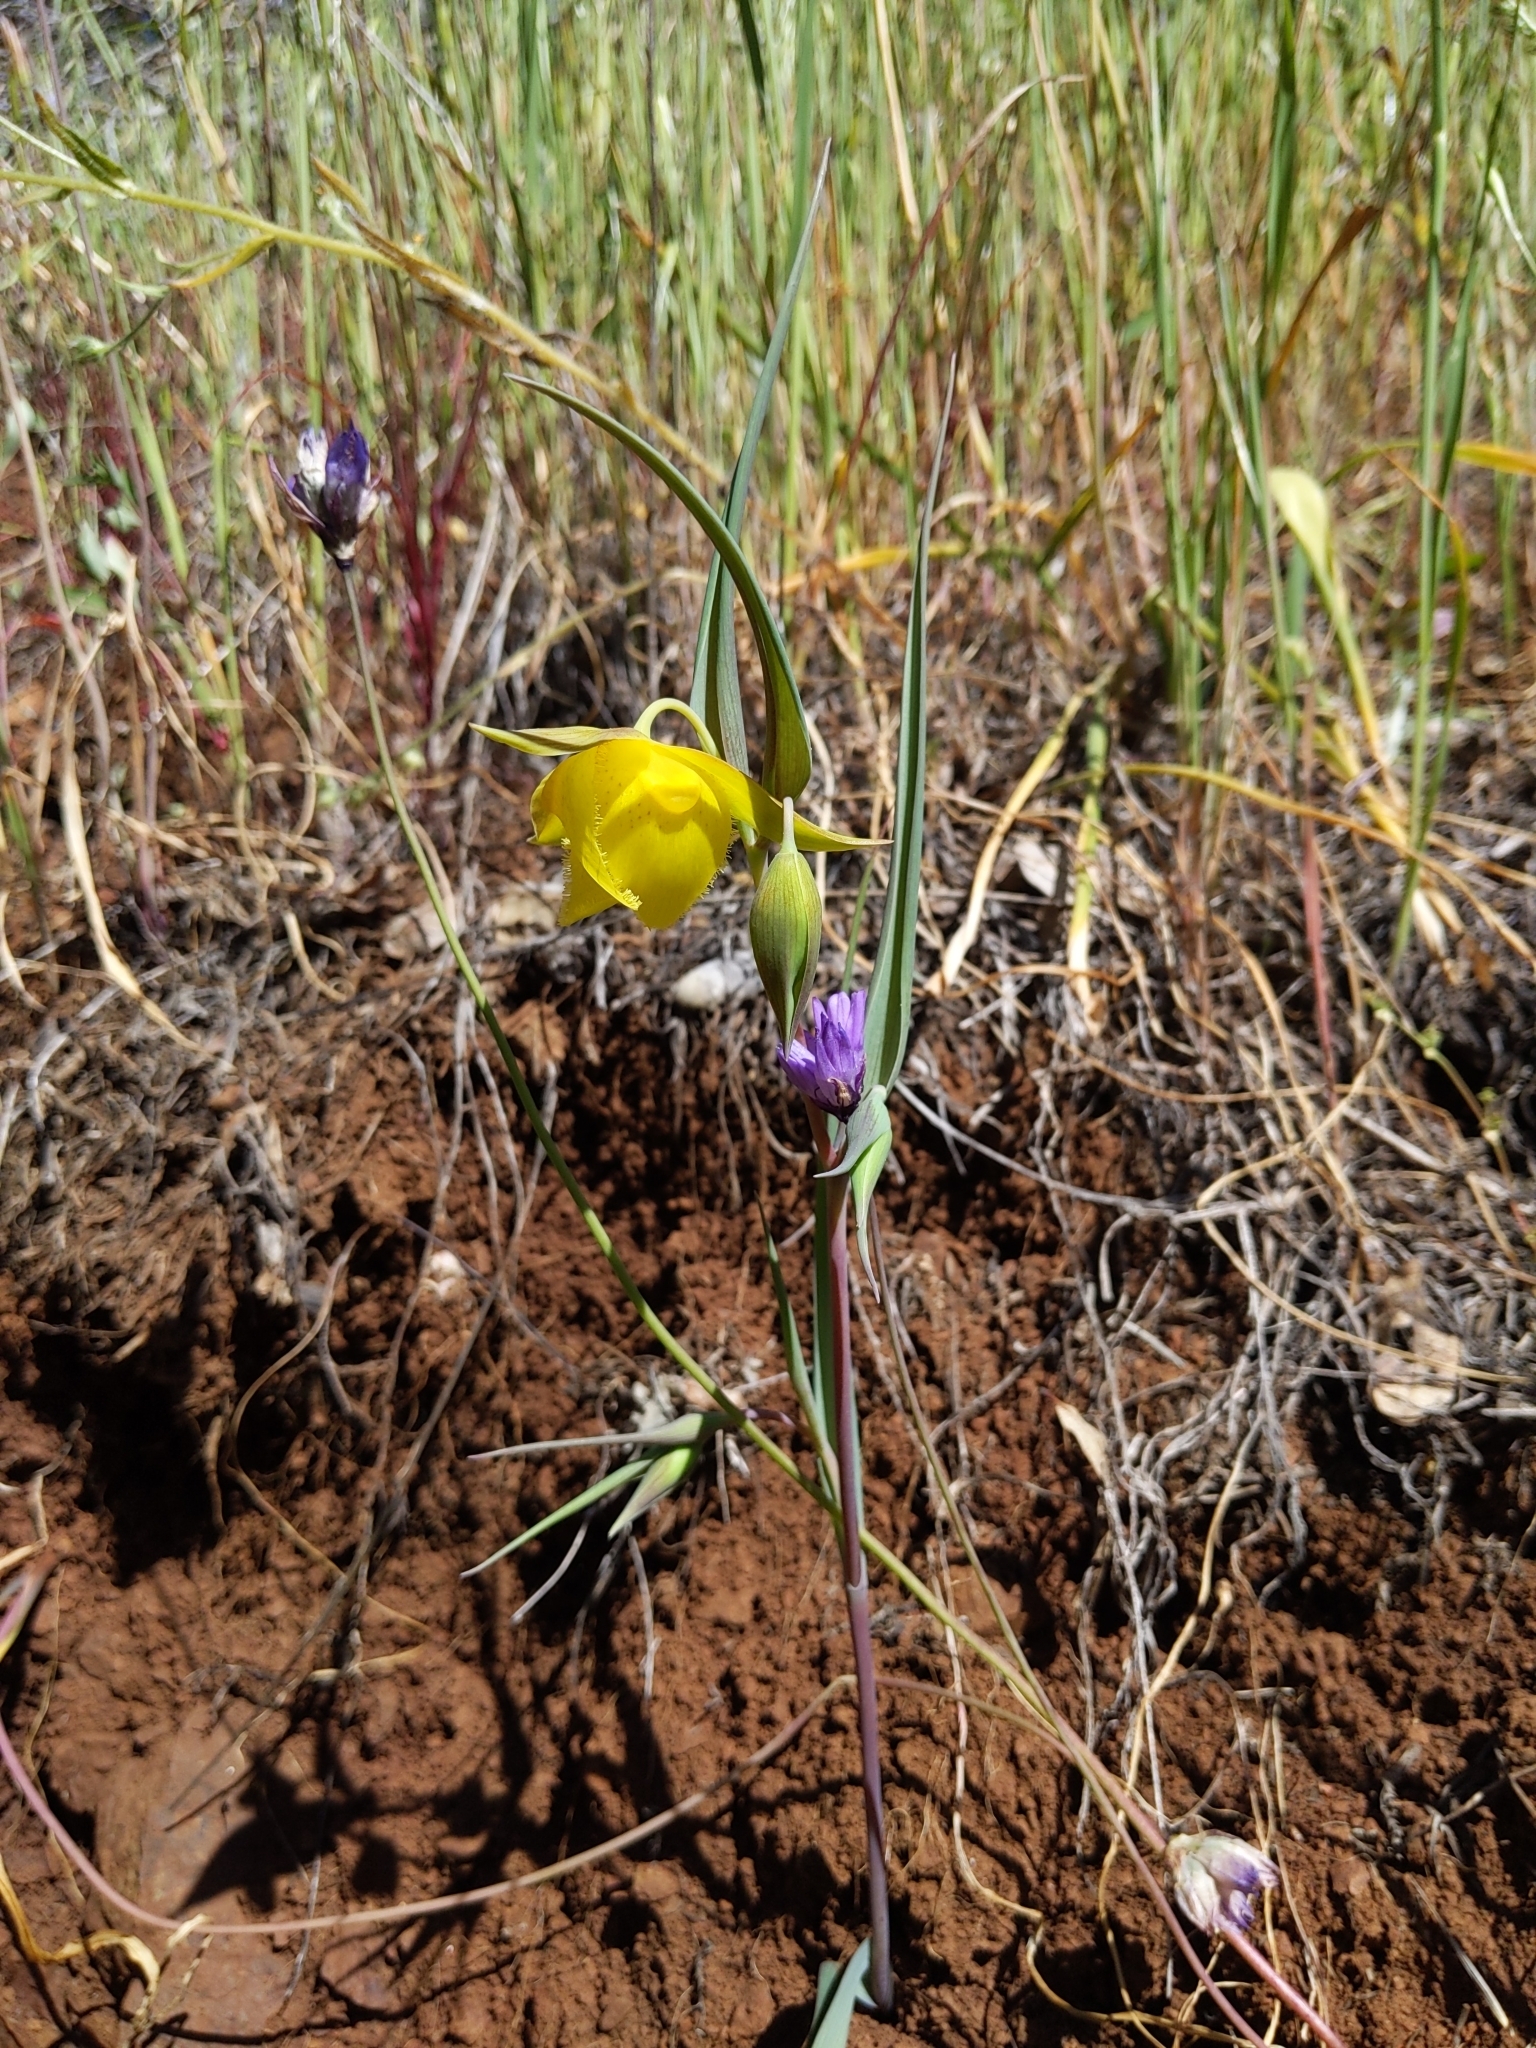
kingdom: Plantae
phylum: Tracheophyta
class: Liliopsida
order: Liliales
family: Liliaceae
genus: Calochortus
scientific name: Calochortus pulchellus
